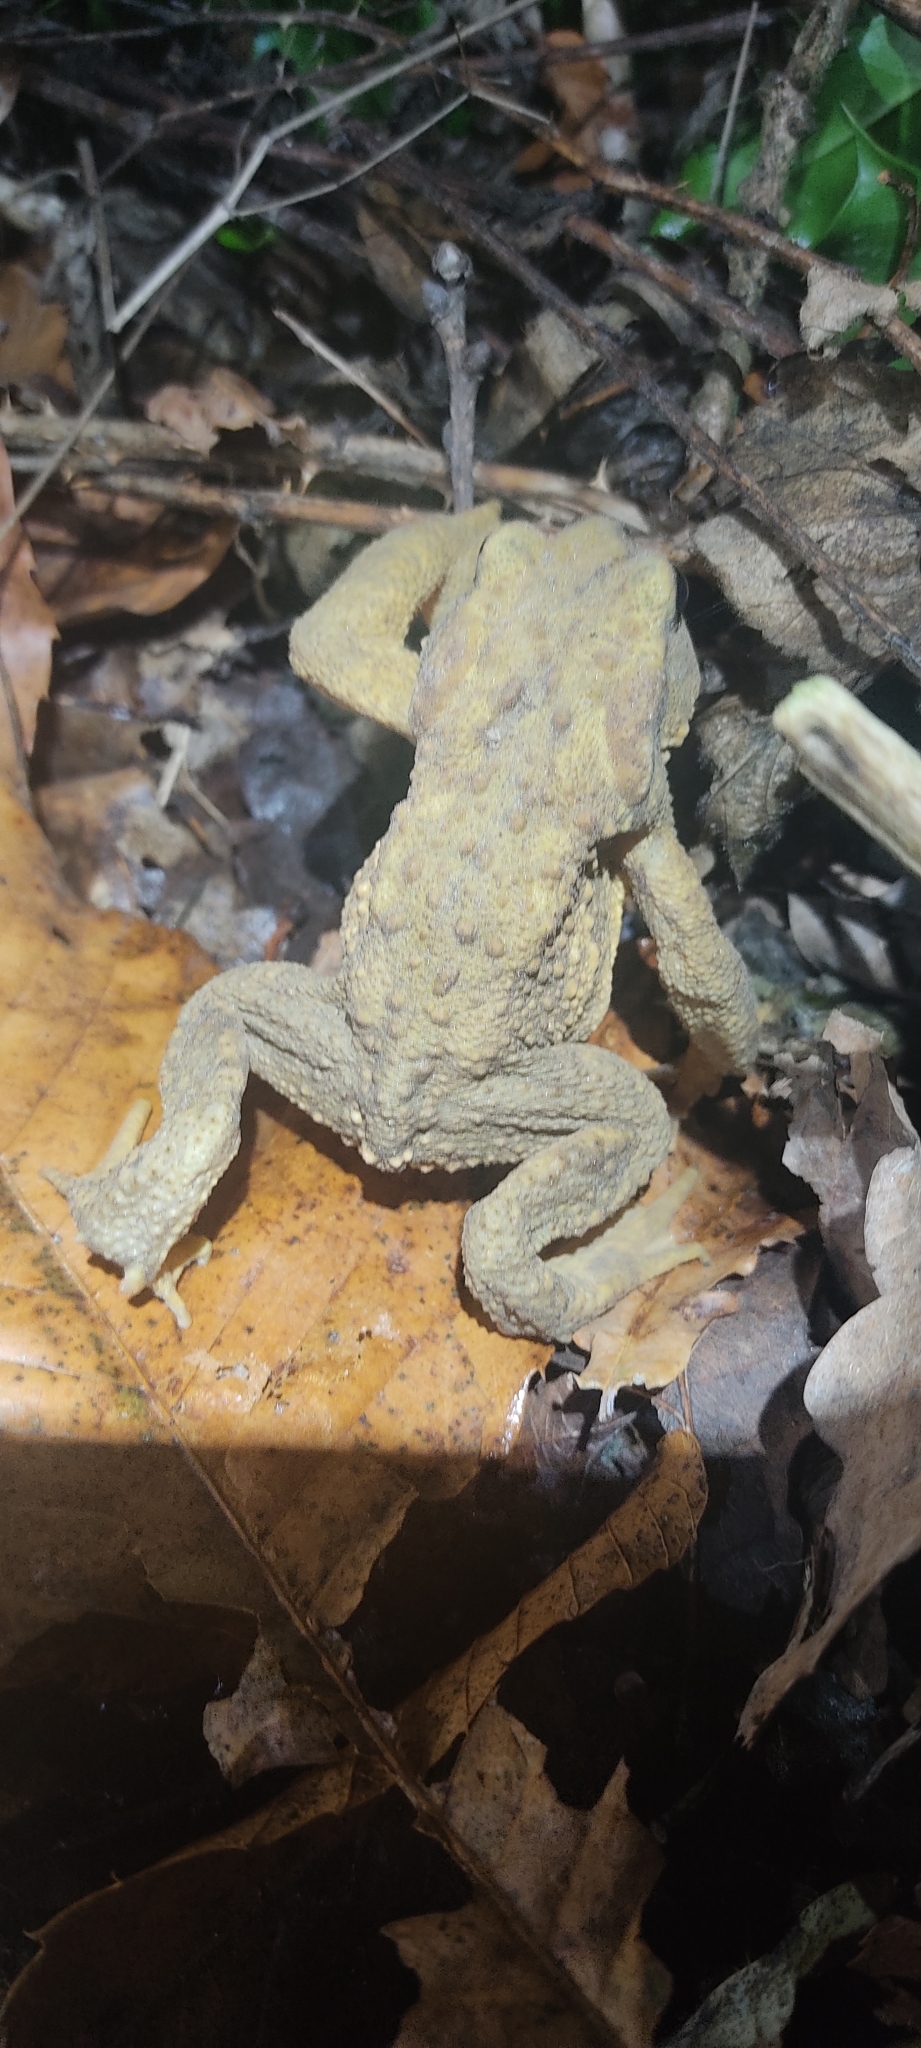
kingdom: Animalia
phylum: Chordata
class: Amphibia
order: Anura
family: Bufonidae
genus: Bufo
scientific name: Bufo spinosus
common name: Western common toad
